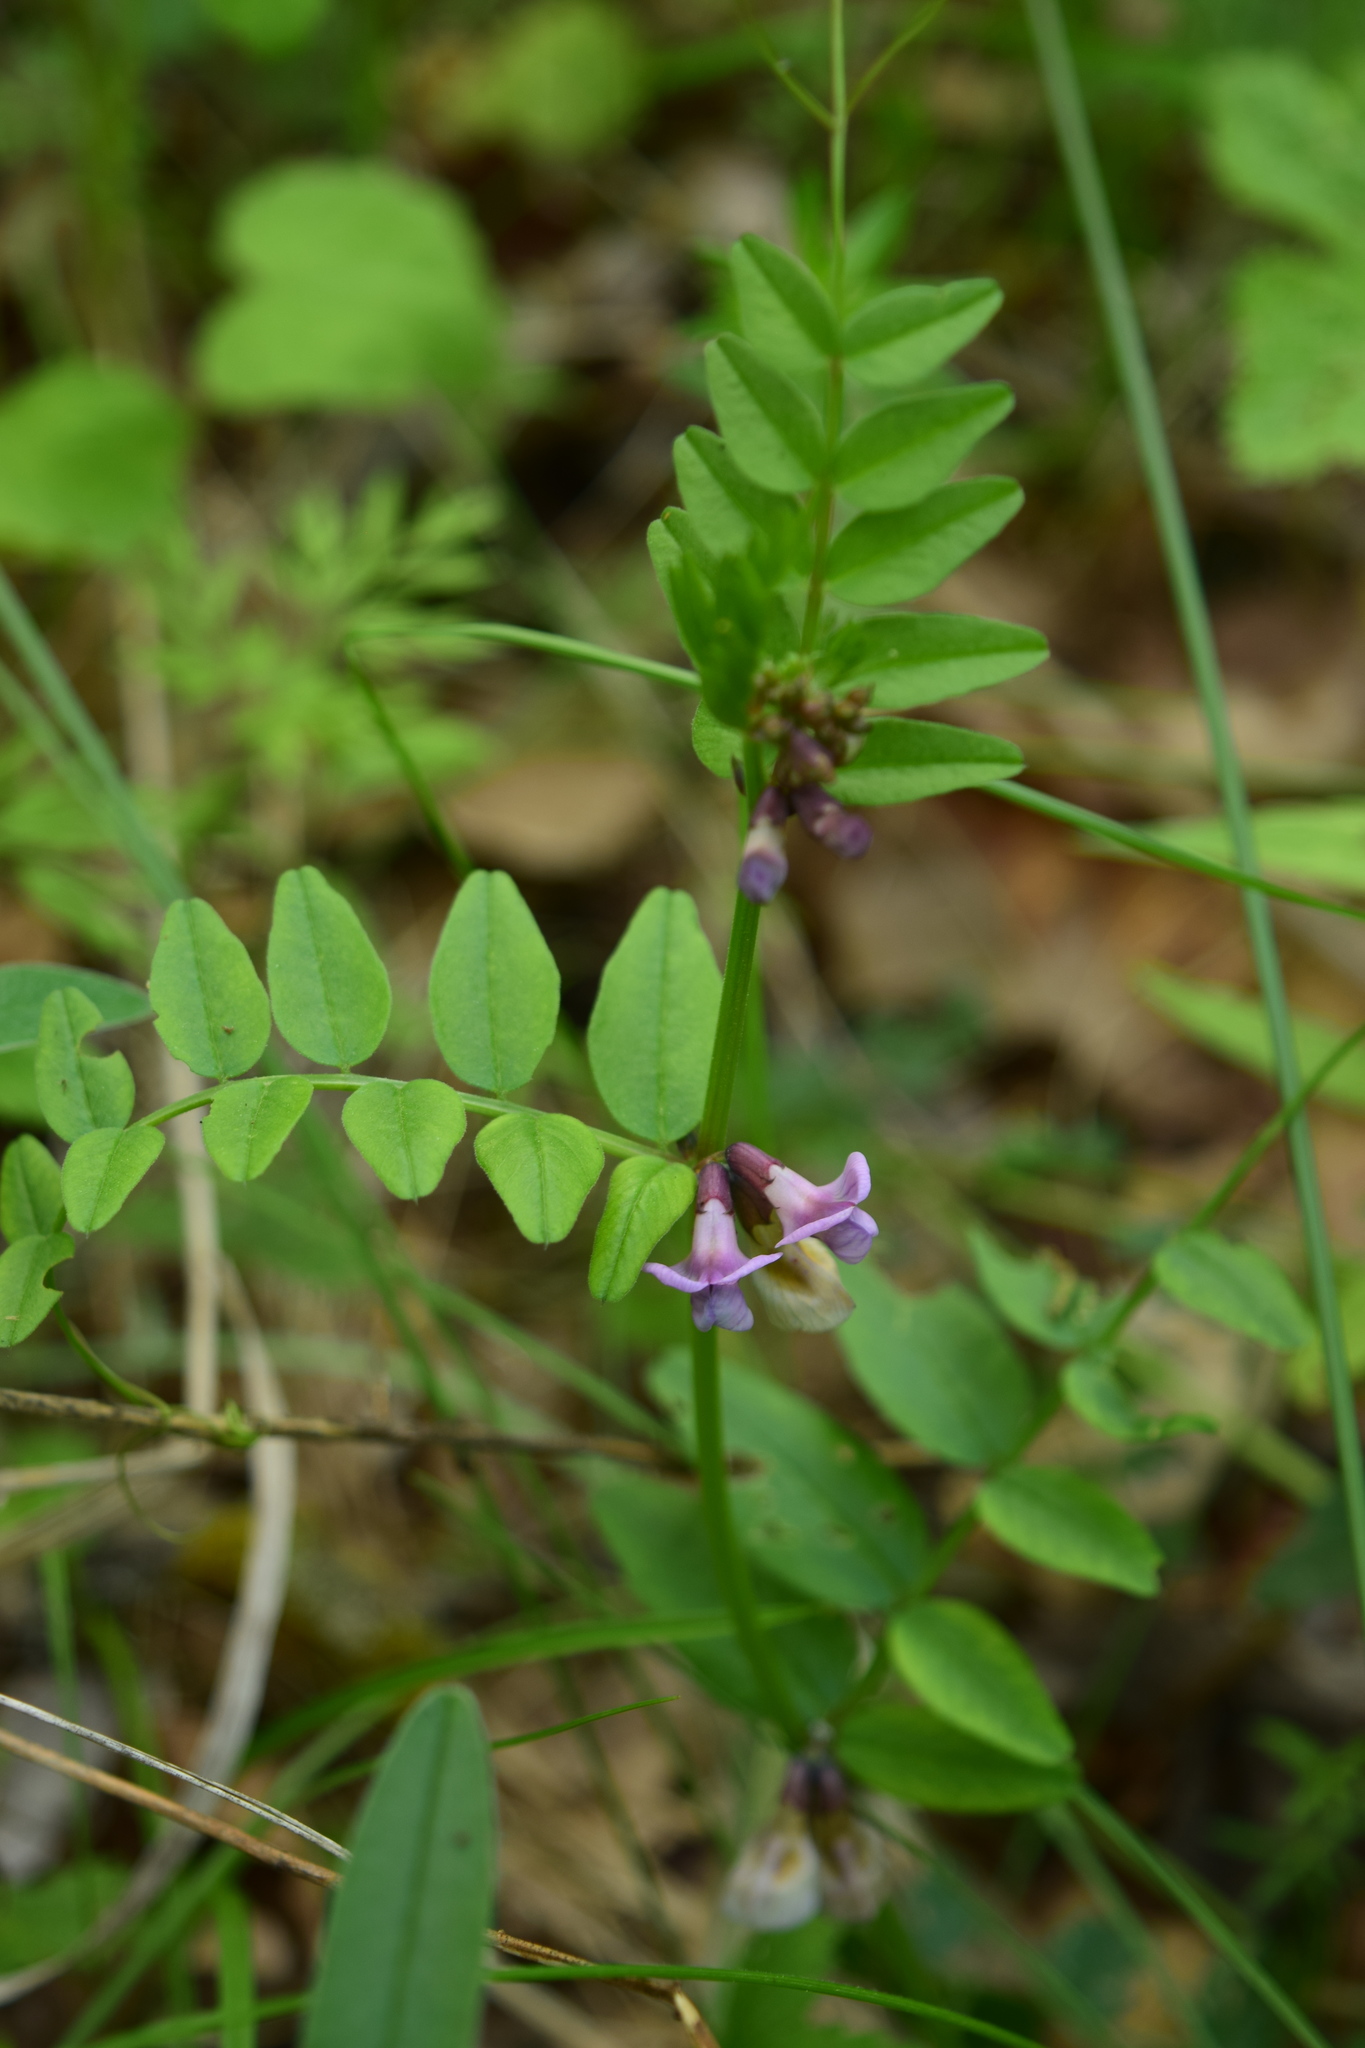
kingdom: Plantae
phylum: Tracheophyta
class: Magnoliopsida
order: Fabales
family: Fabaceae
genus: Vicia
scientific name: Vicia sepium
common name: Bush vetch
